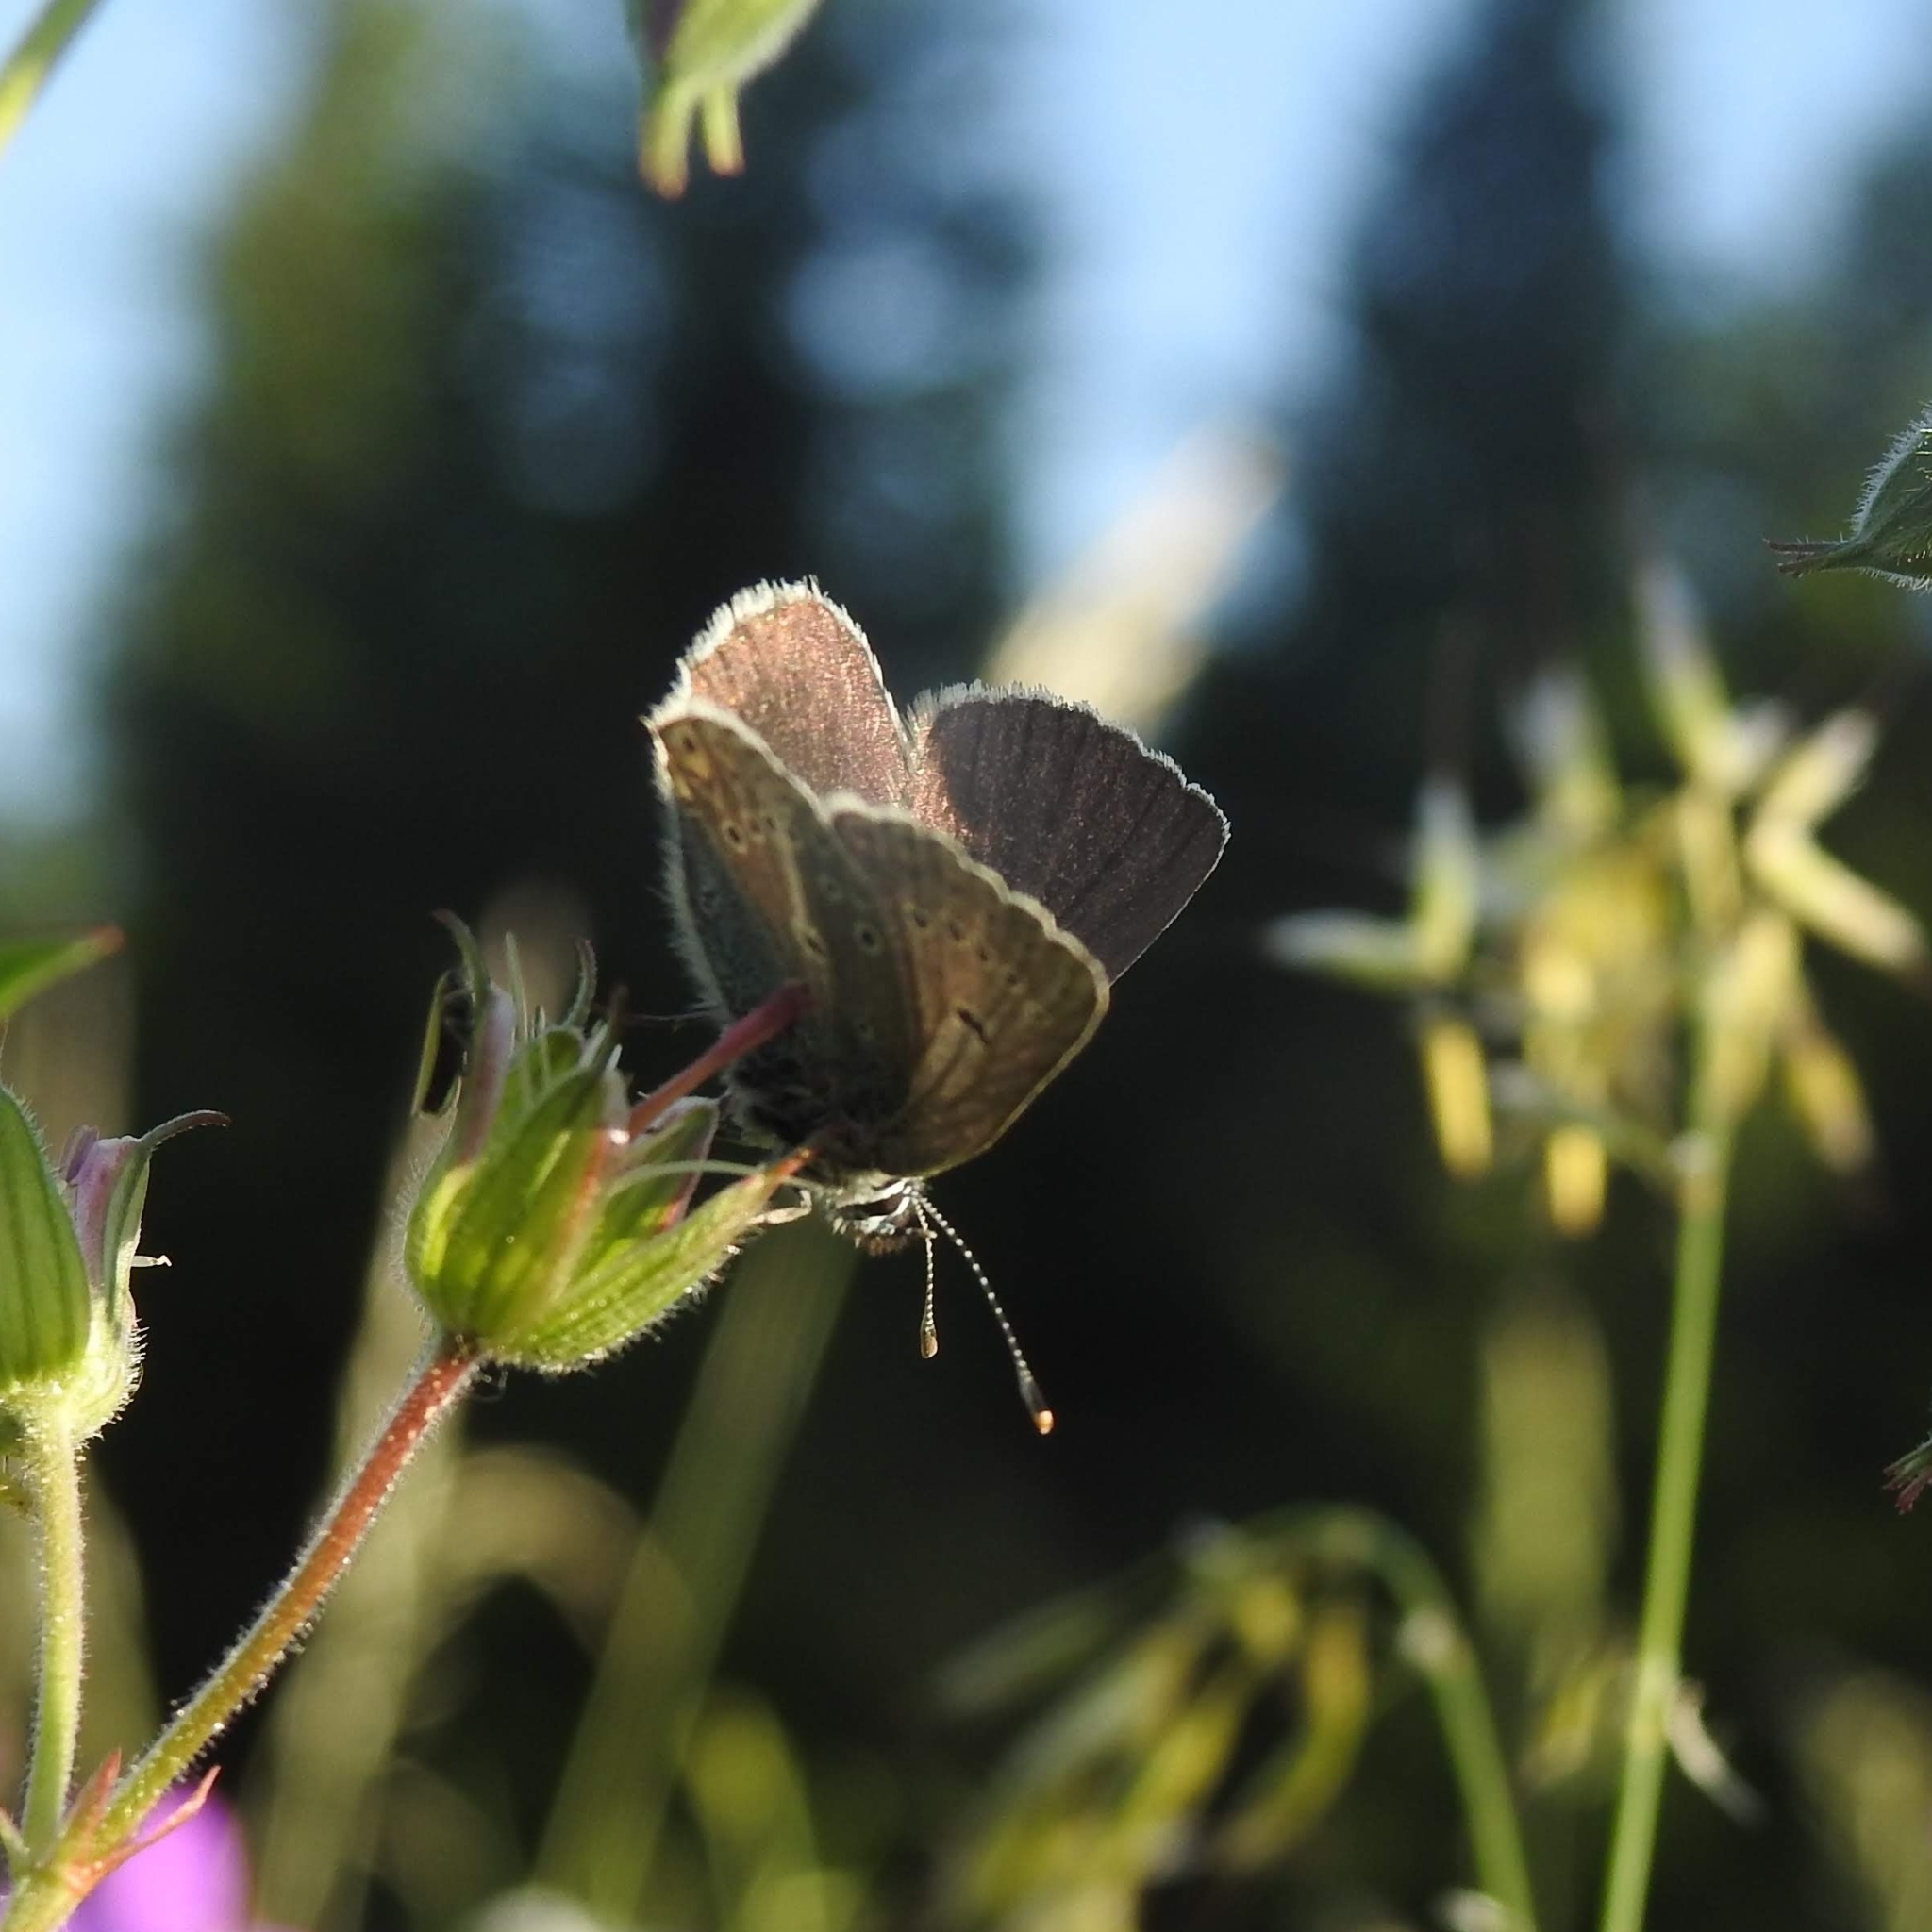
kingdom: Animalia
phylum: Arthropoda
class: Insecta
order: Lepidoptera
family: Lycaenidae
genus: Eumedonia
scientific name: Eumedonia eumedon
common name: Geranium argus
